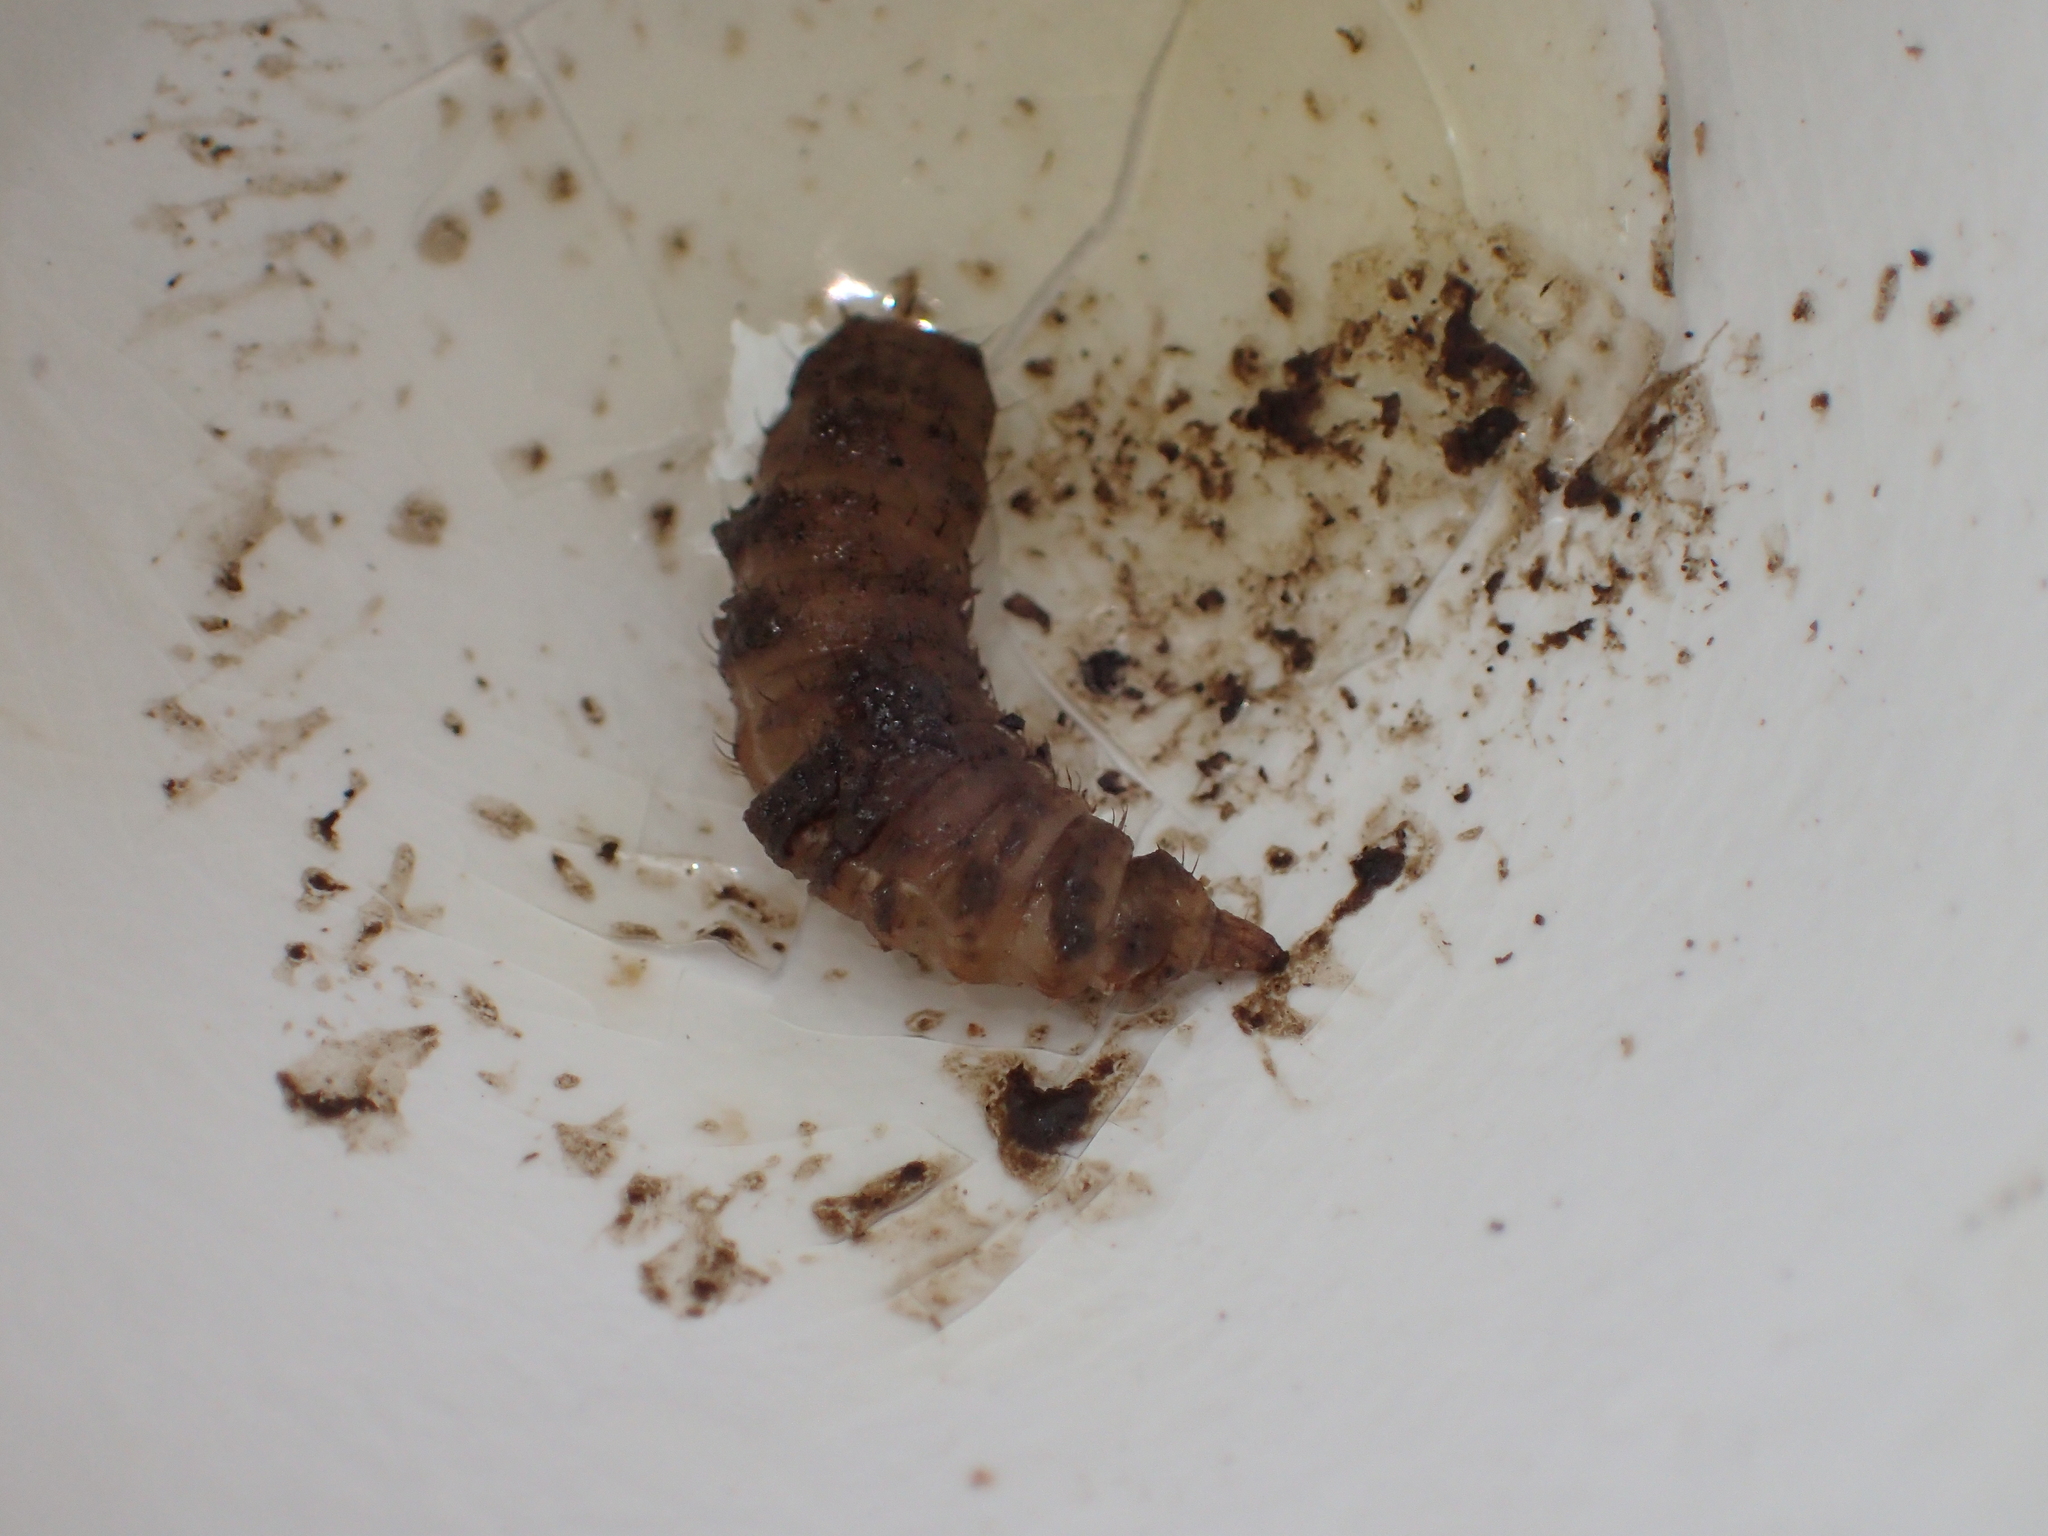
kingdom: Animalia
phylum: Arthropoda
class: Insecta
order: Diptera
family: Stratiomyidae
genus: Hermetia
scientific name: Hermetia illucens
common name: Black soldier fly
